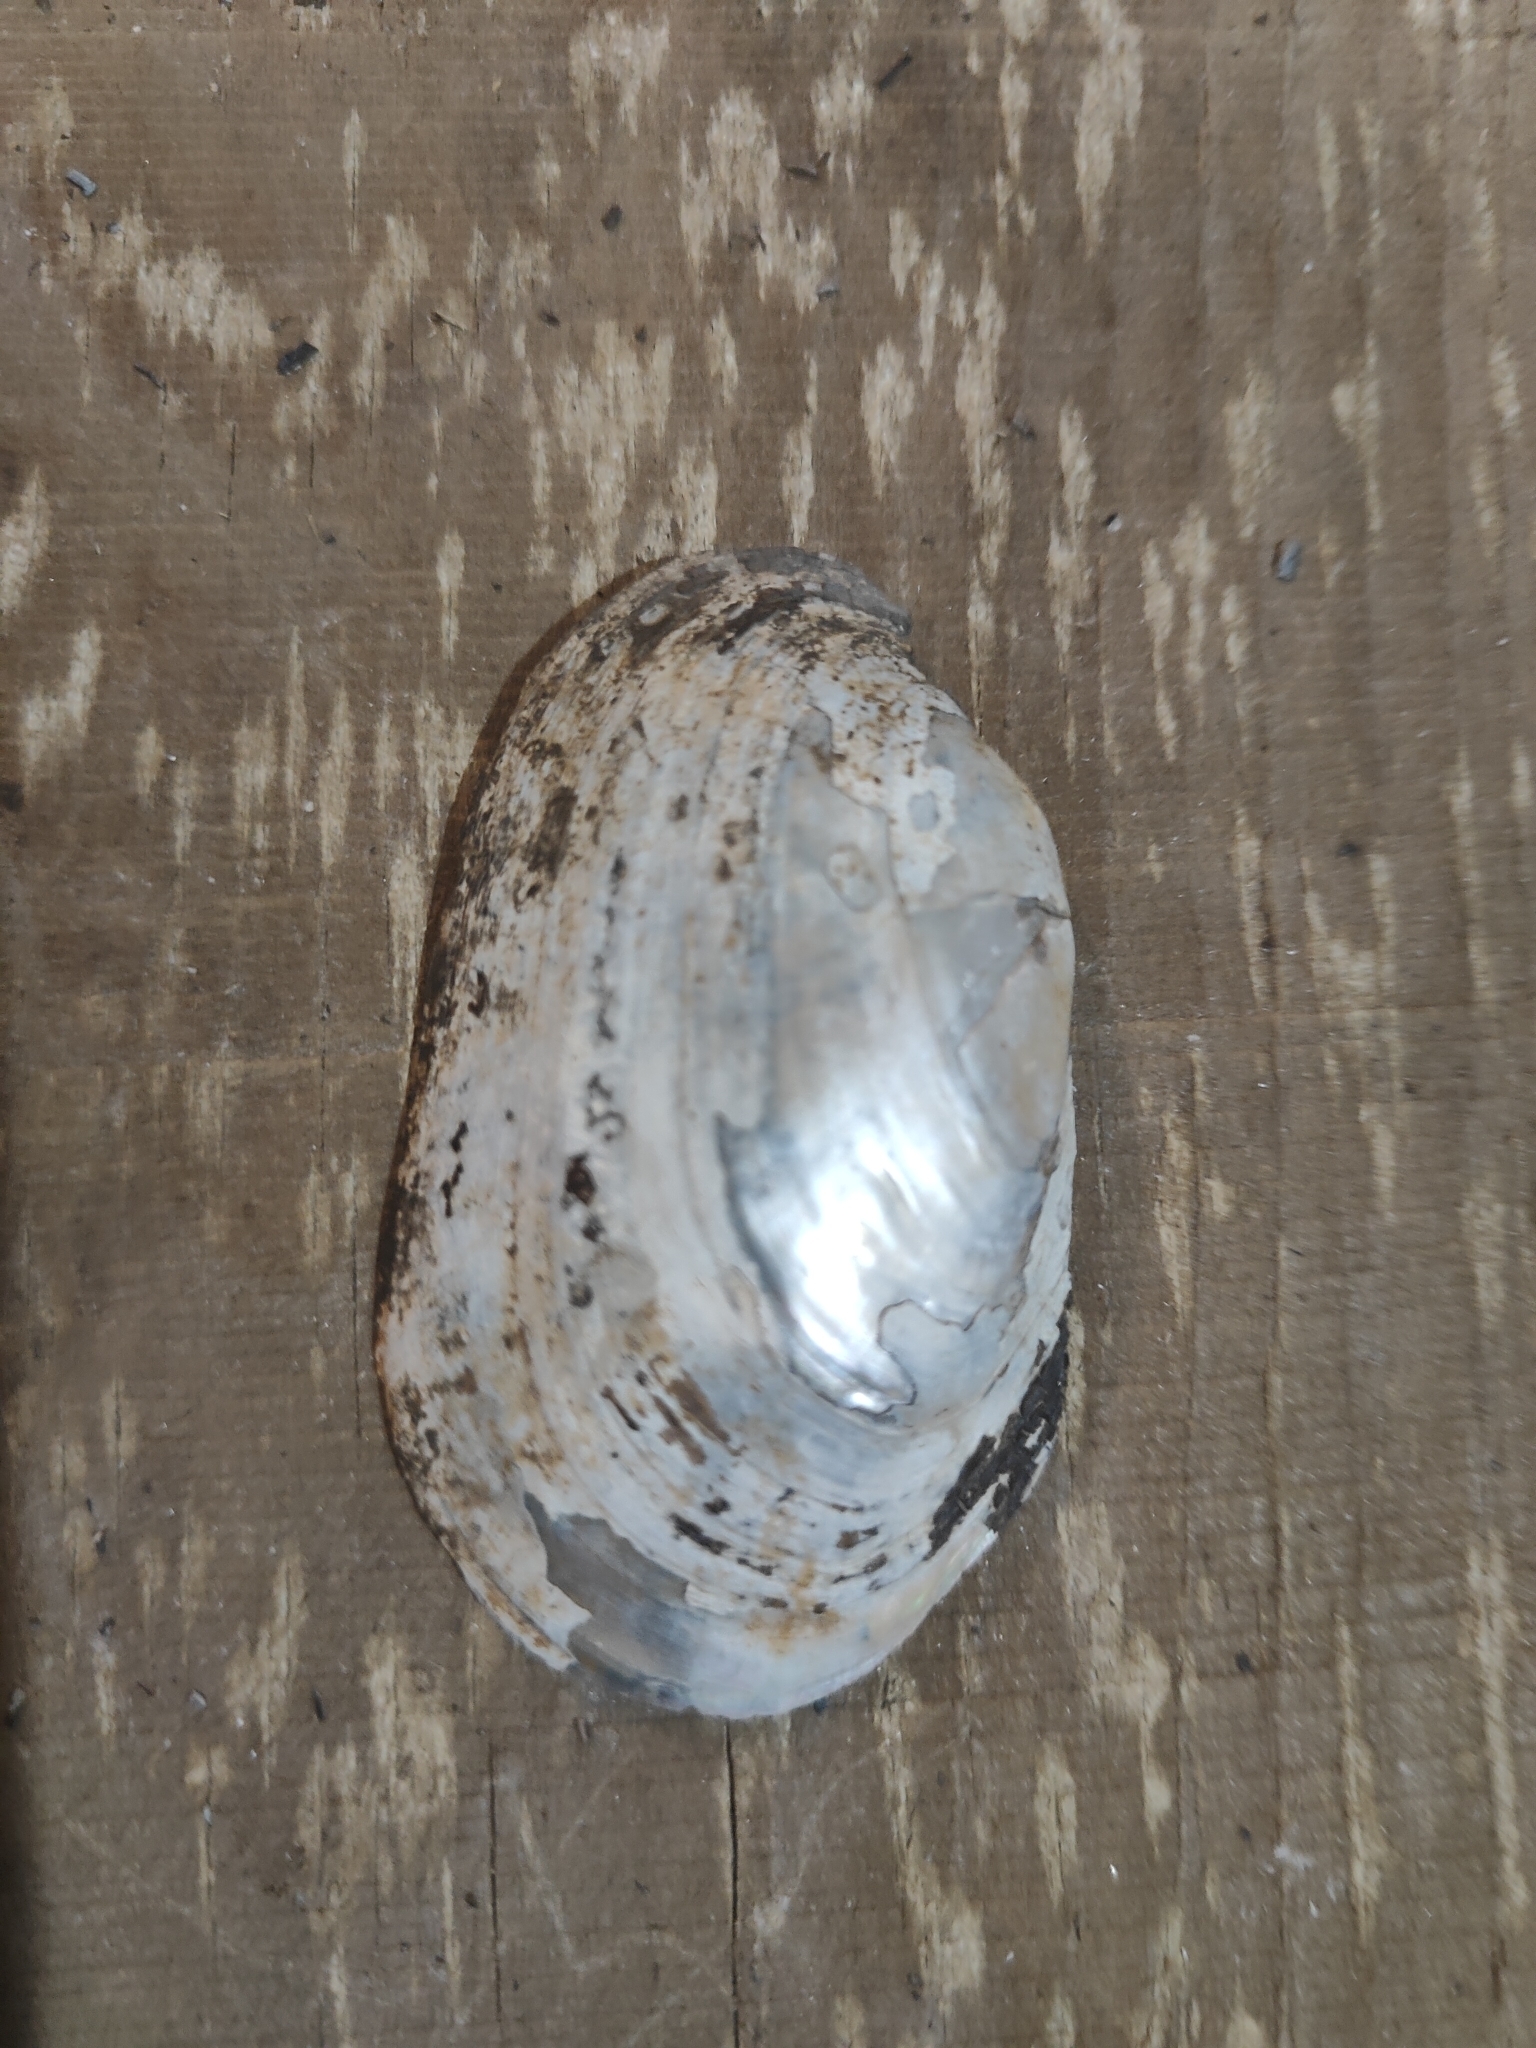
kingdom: Animalia
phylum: Mollusca
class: Bivalvia
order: Unionida
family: Unionidae
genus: Lampsilis
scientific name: Lampsilis siliquoidea
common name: Fatmucket
